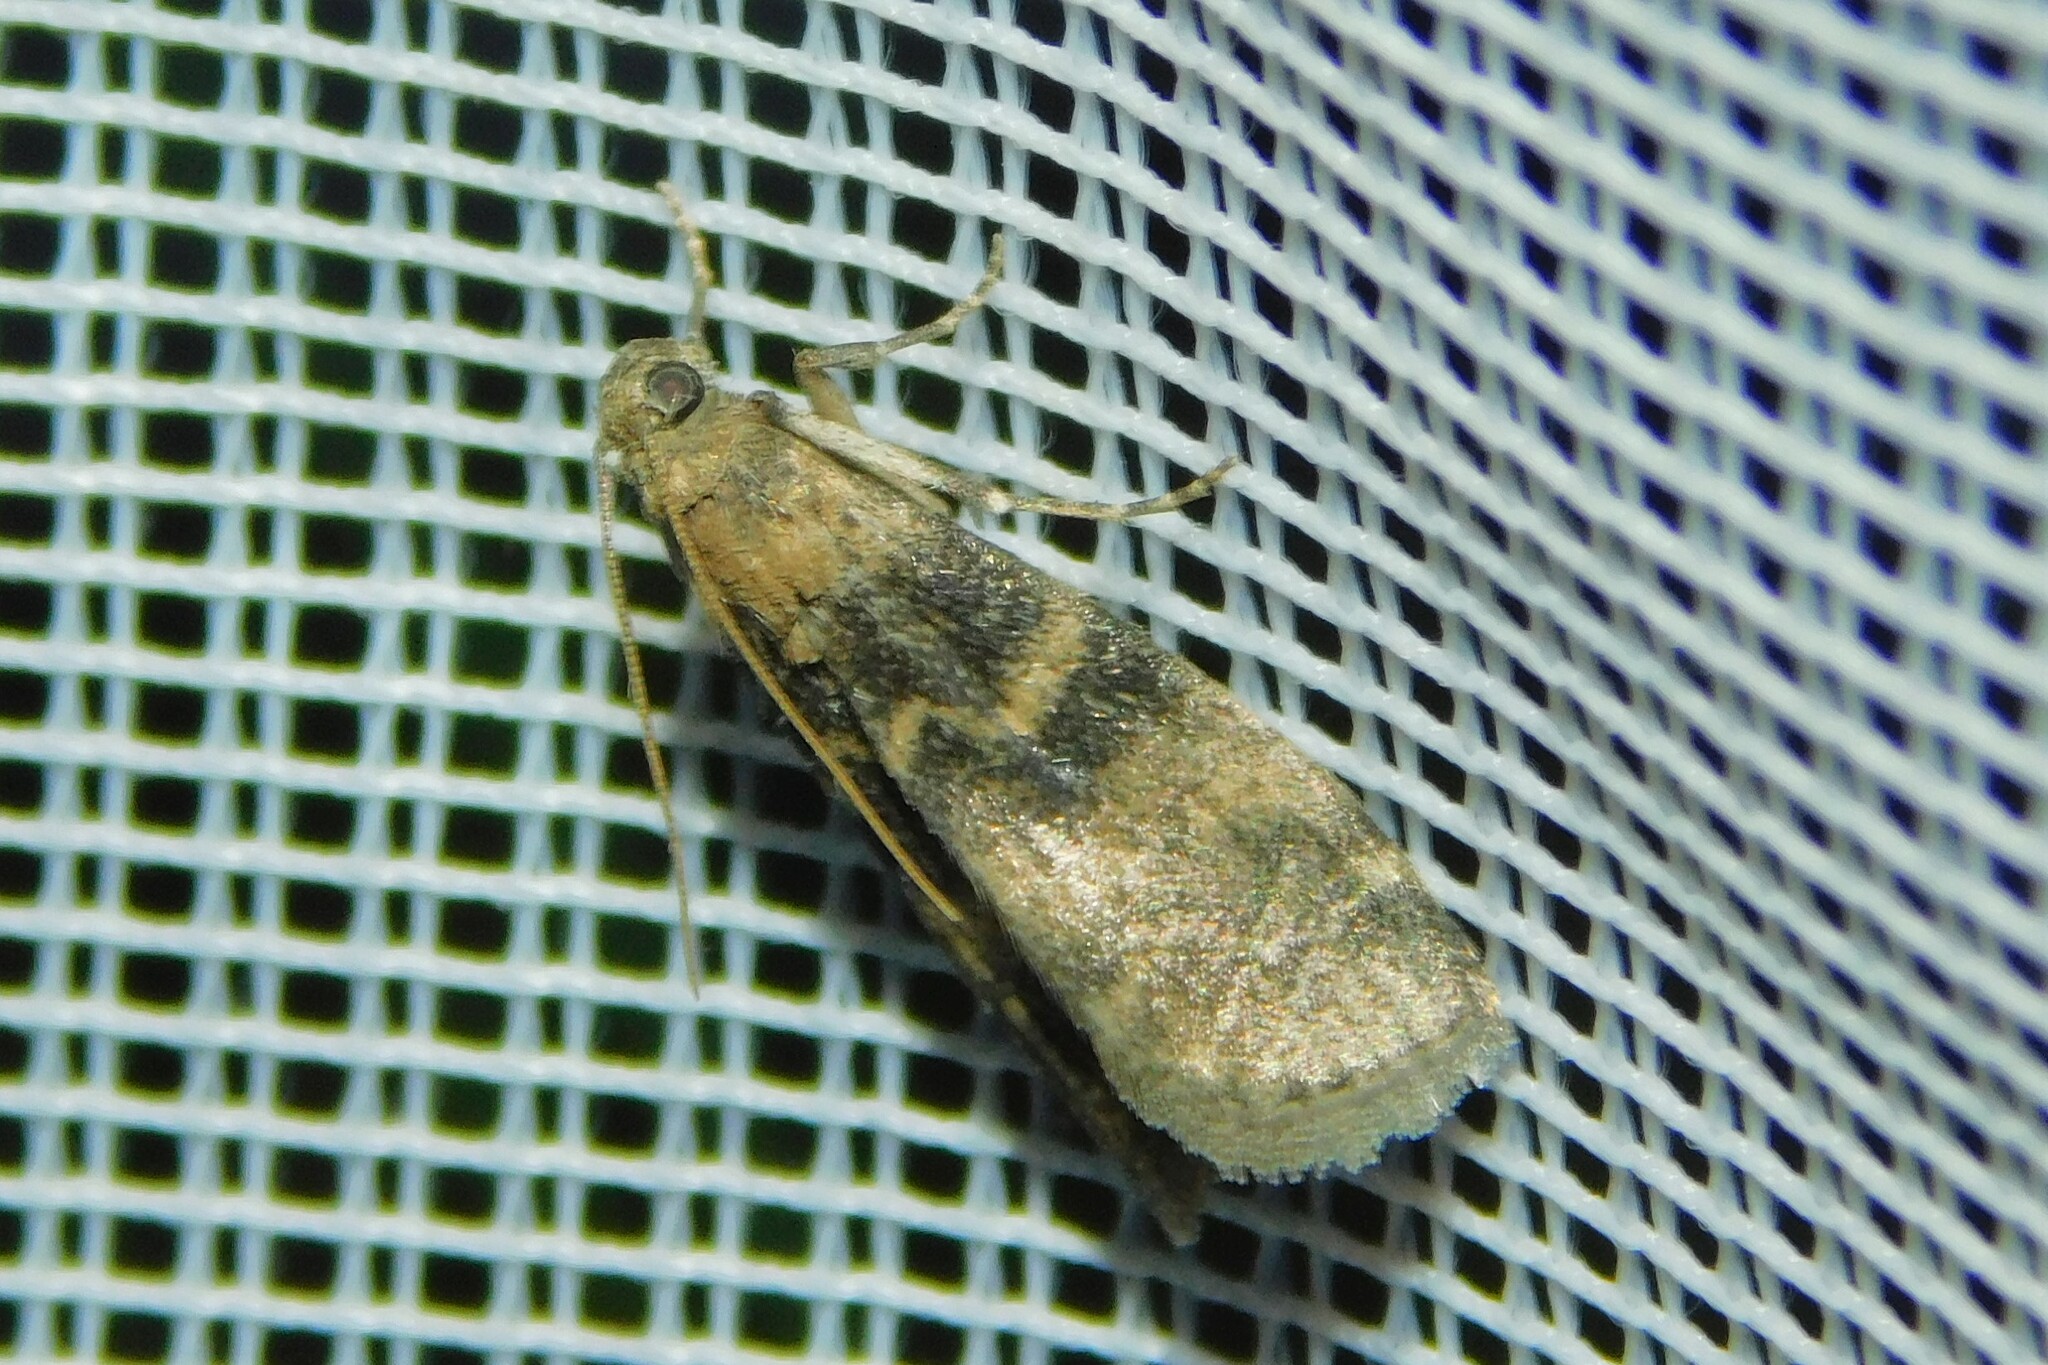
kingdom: Animalia
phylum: Arthropoda
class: Insecta
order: Lepidoptera
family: Pyralidae
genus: Euzophera
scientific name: Euzophera pinguis
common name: Ash-bark knot-horn
